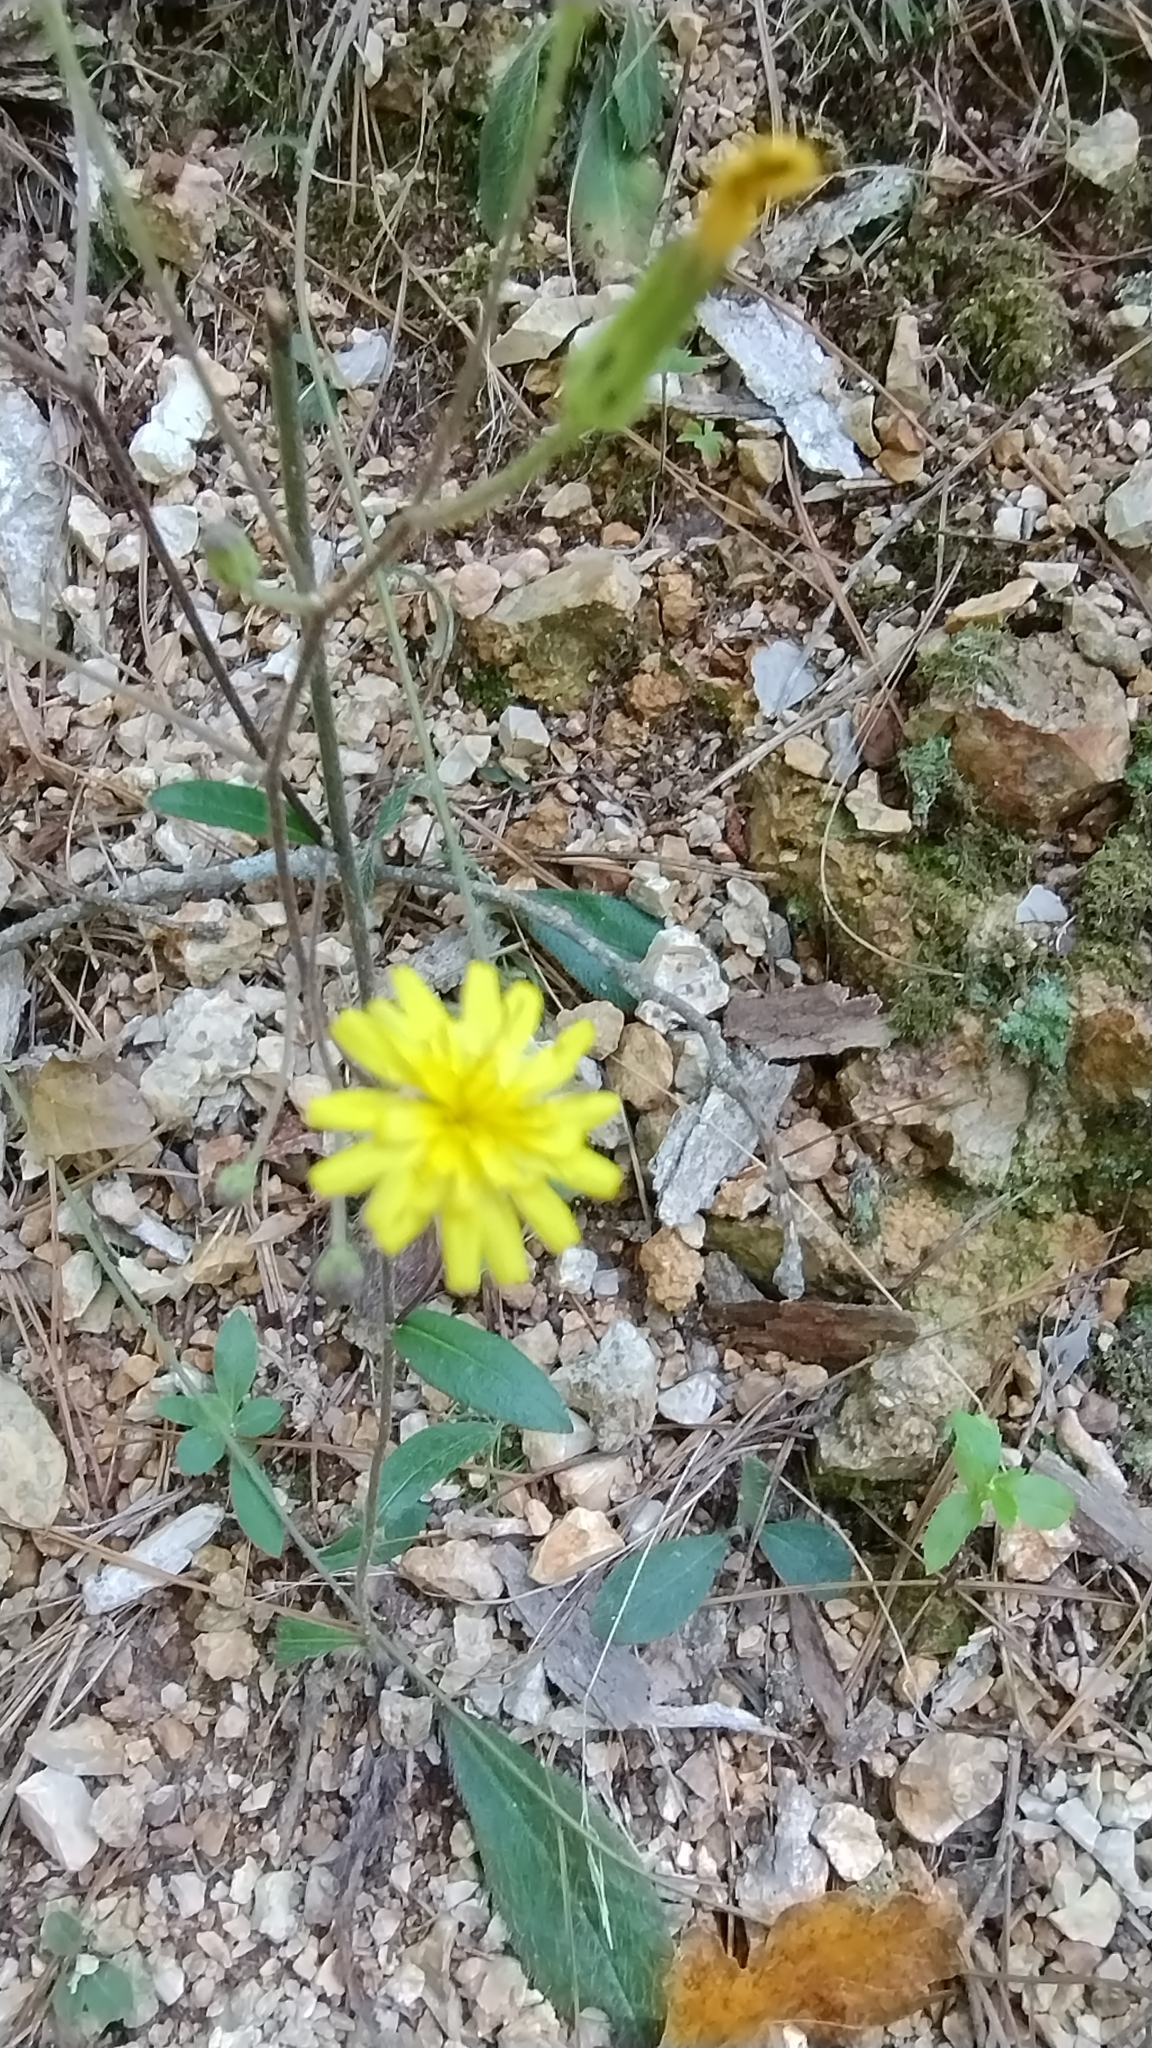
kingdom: Plantae
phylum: Tracheophyta
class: Magnoliopsida
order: Asterales
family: Asteraceae
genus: Hieracium
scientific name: Hieracium gronovii
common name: Beaked hawkweed
